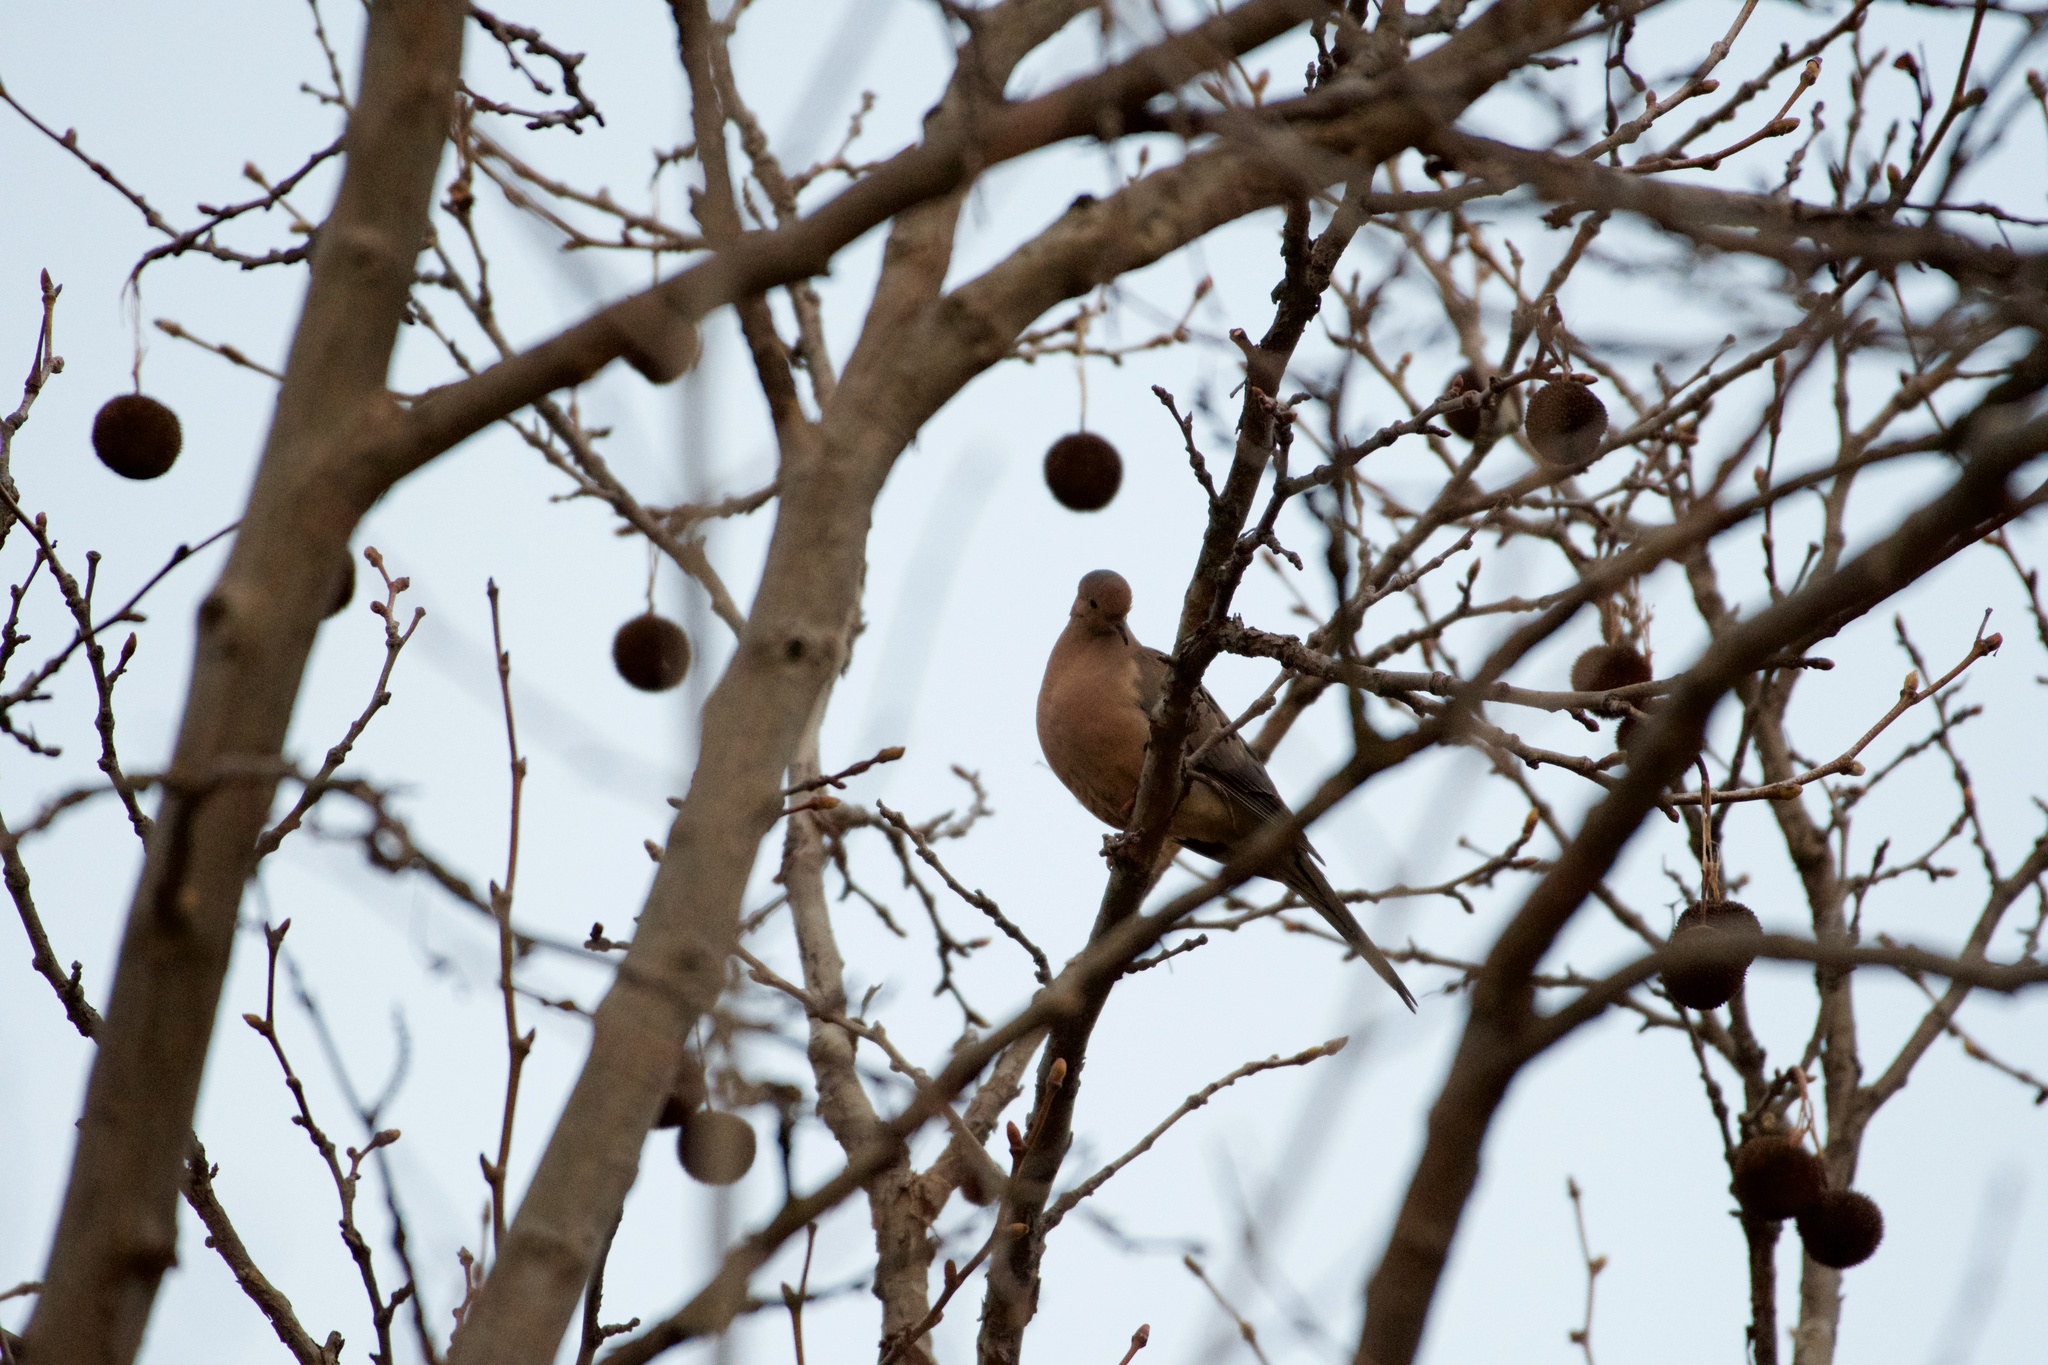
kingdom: Animalia
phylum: Chordata
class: Aves
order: Columbiformes
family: Columbidae
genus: Zenaida
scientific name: Zenaida macroura
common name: Mourning dove
